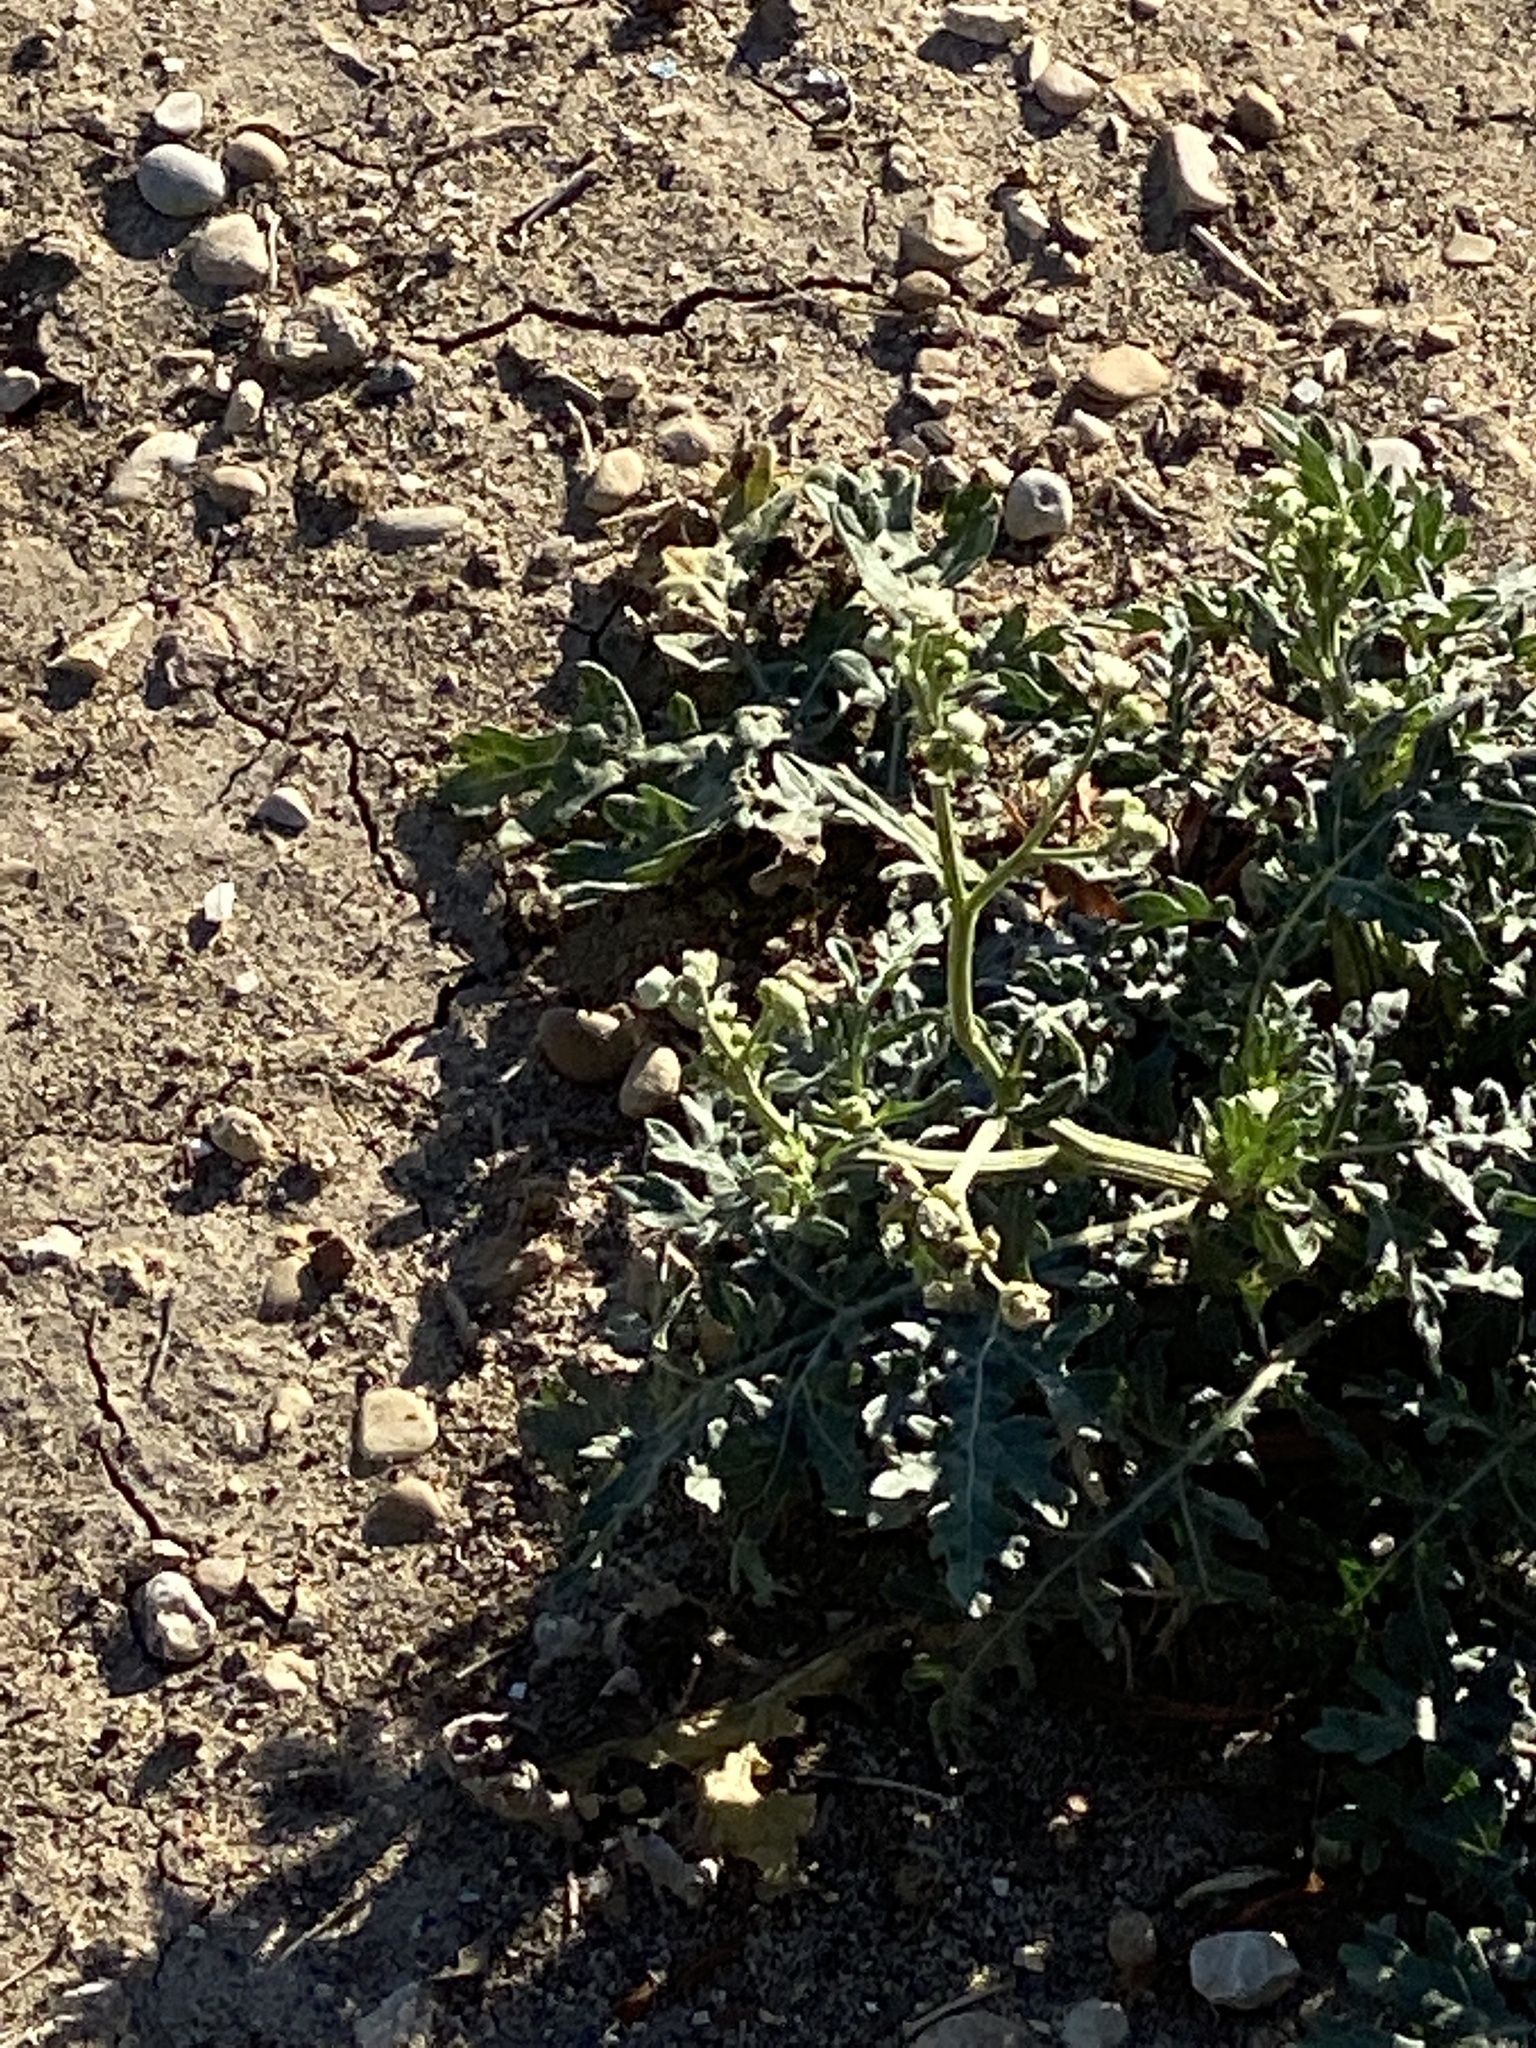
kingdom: Plantae
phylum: Tracheophyta
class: Magnoliopsida
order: Asterales
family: Asteraceae
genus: Parthenium
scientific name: Parthenium hysterophorus
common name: Santa maria feverfew
